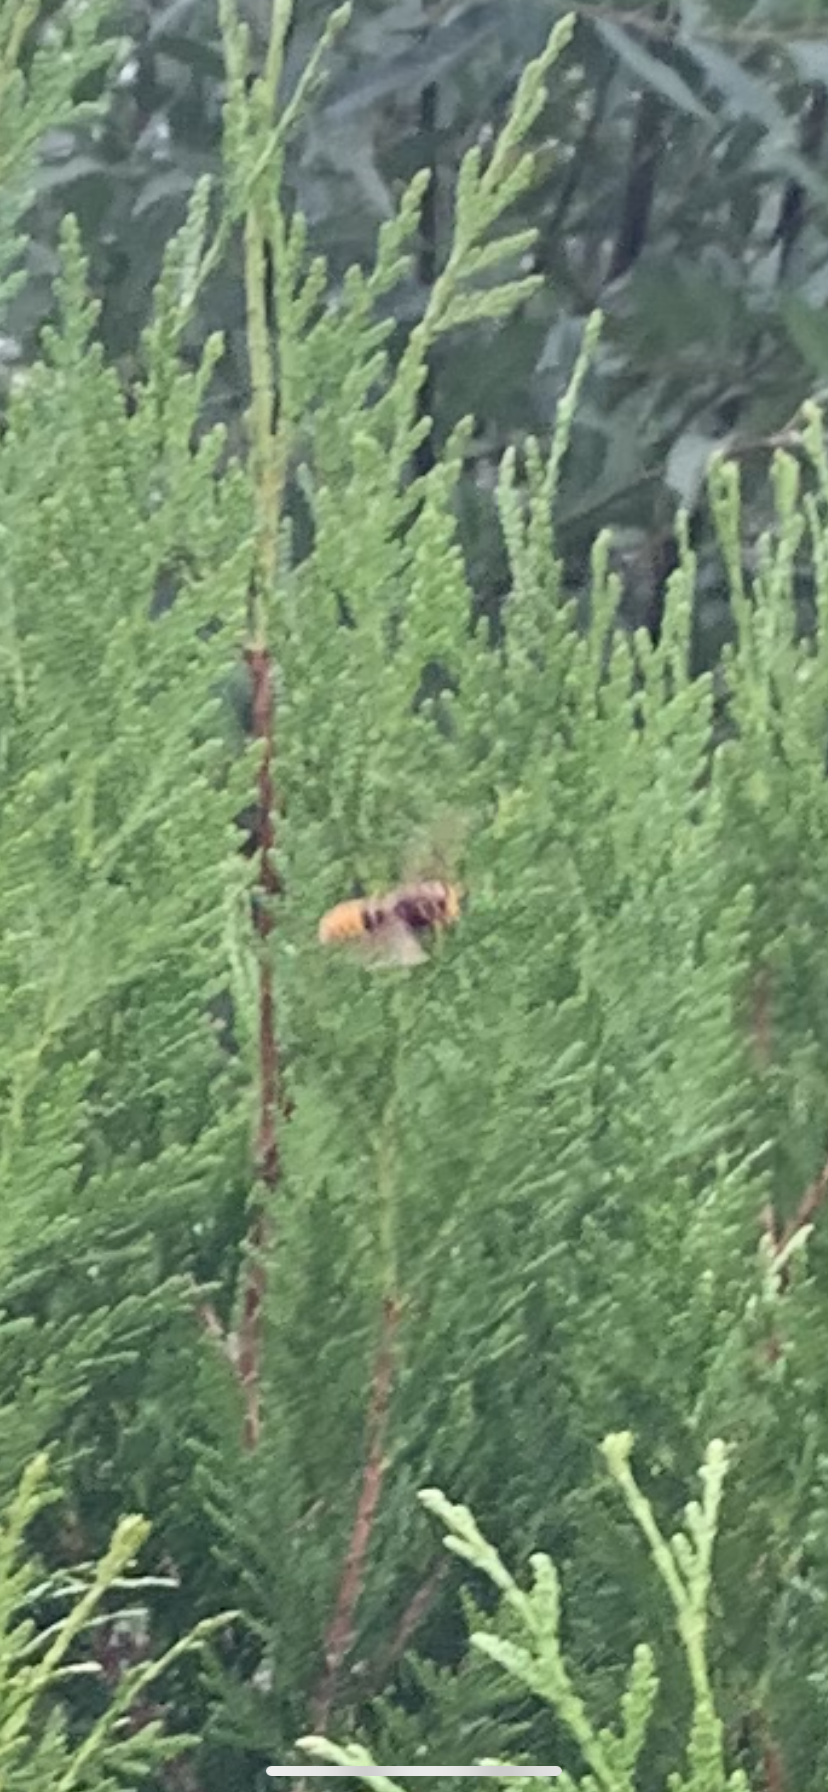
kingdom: Animalia
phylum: Arthropoda
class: Insecta
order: Hymenoptera
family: Vespidae
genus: Vespa
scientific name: Vespa crabro
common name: Hornet
